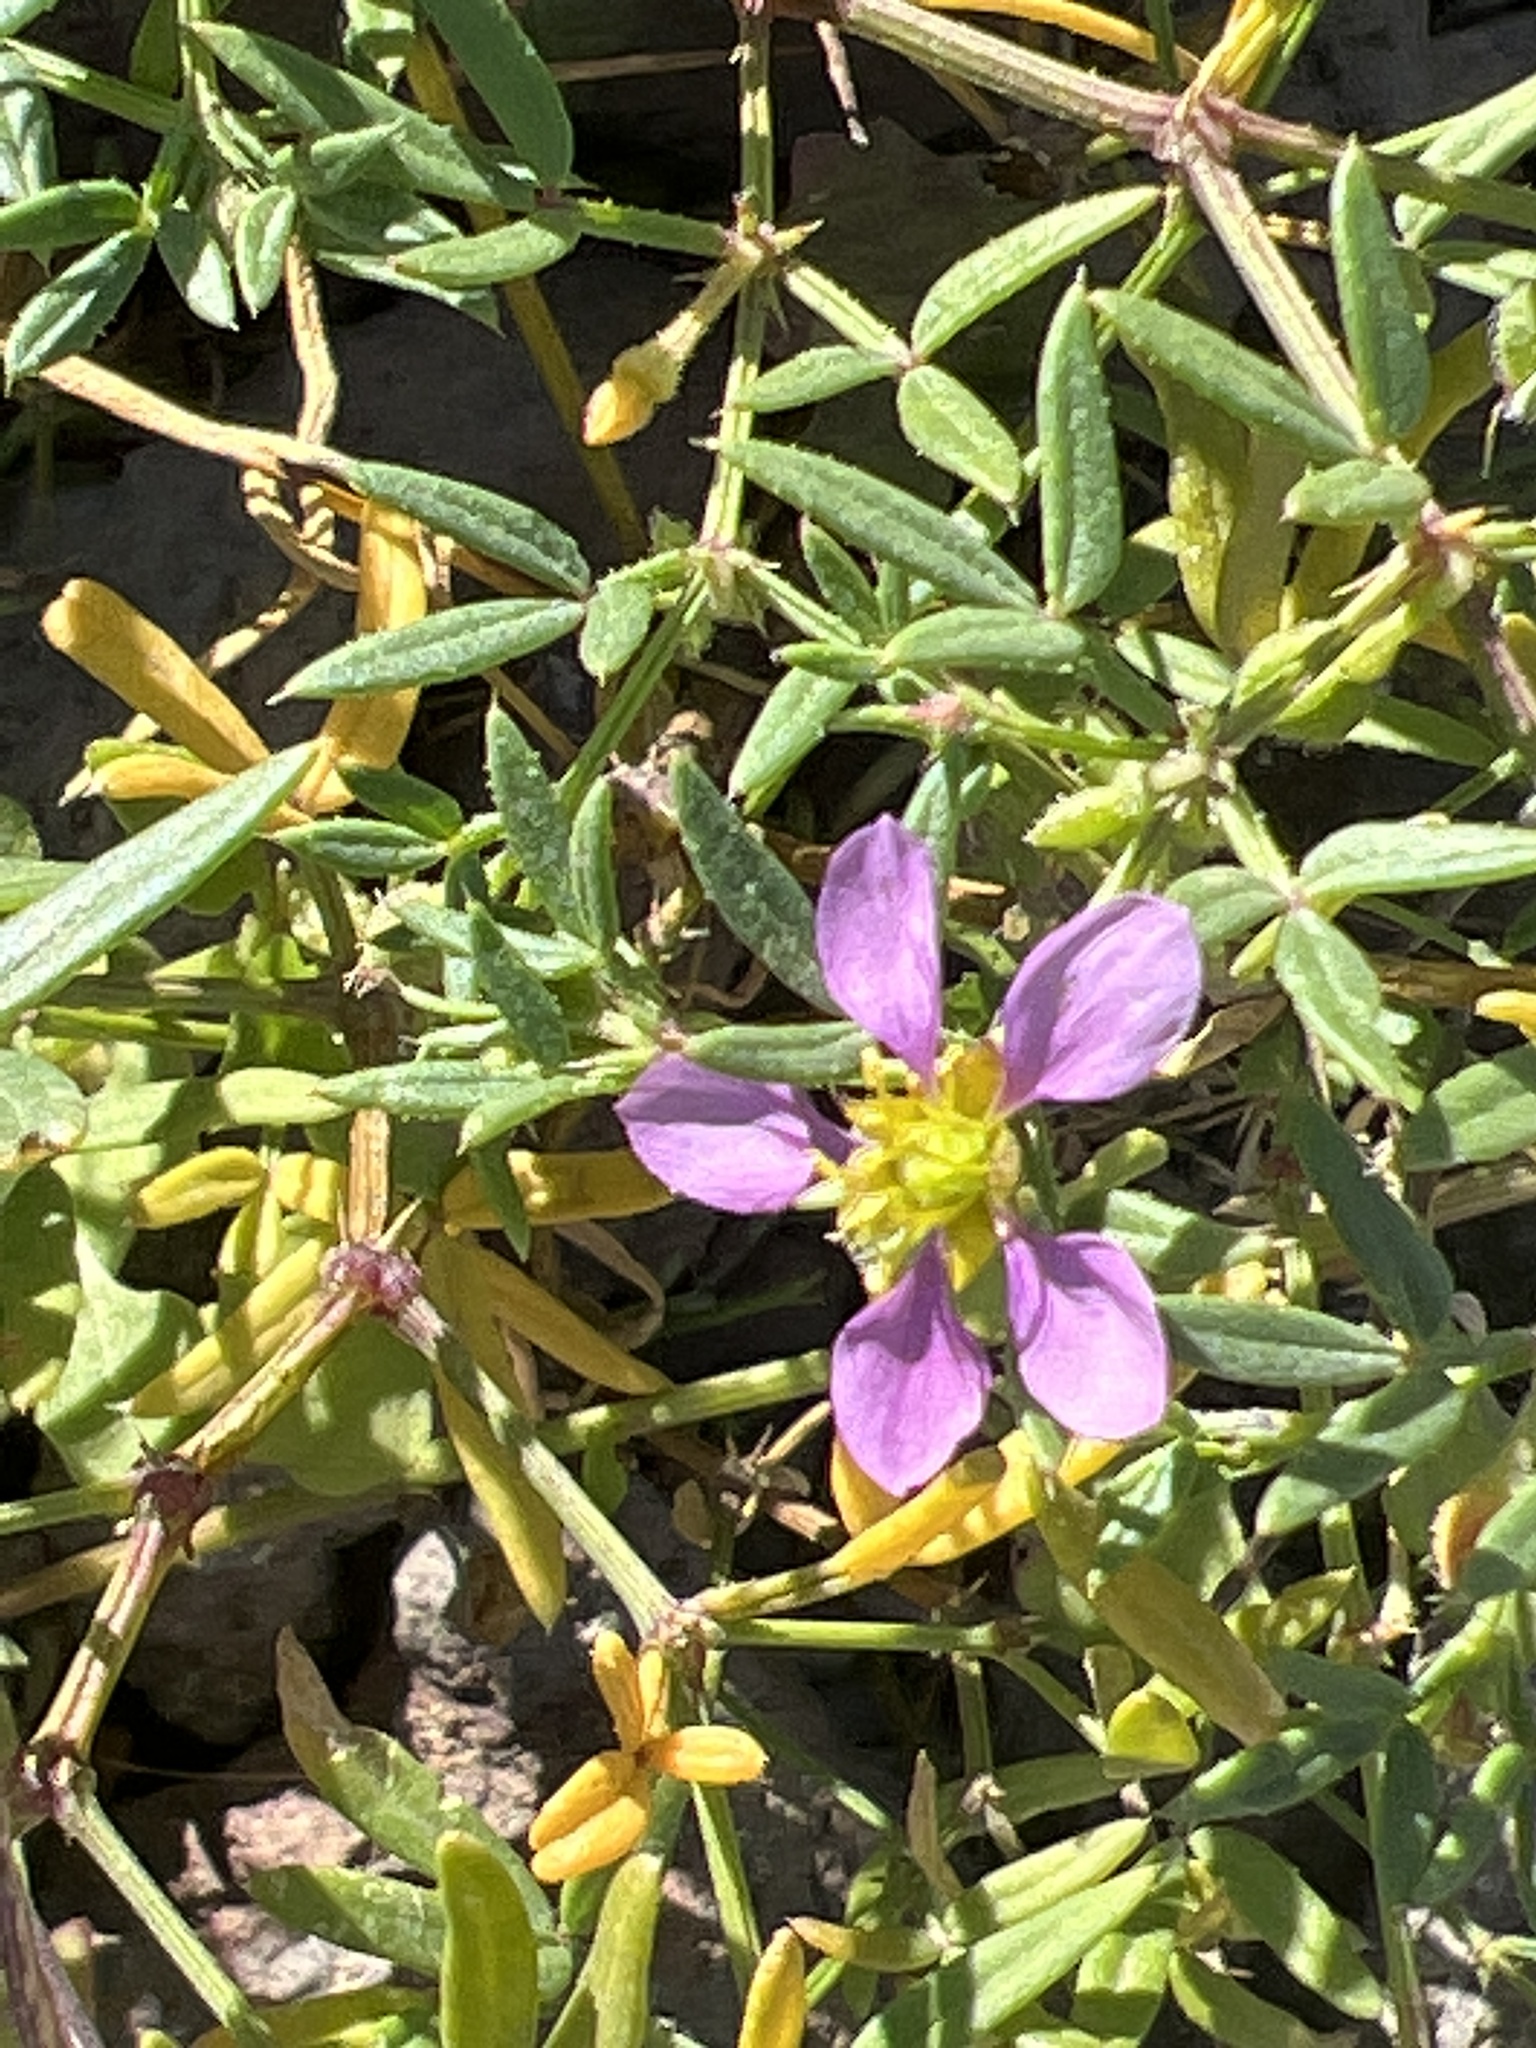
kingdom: Plantae
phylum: Tracheophyta
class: Magnoliopsida
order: Zygophyllales
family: Zygophyllaceae
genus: Fagonia
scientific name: Fagonia cretica
